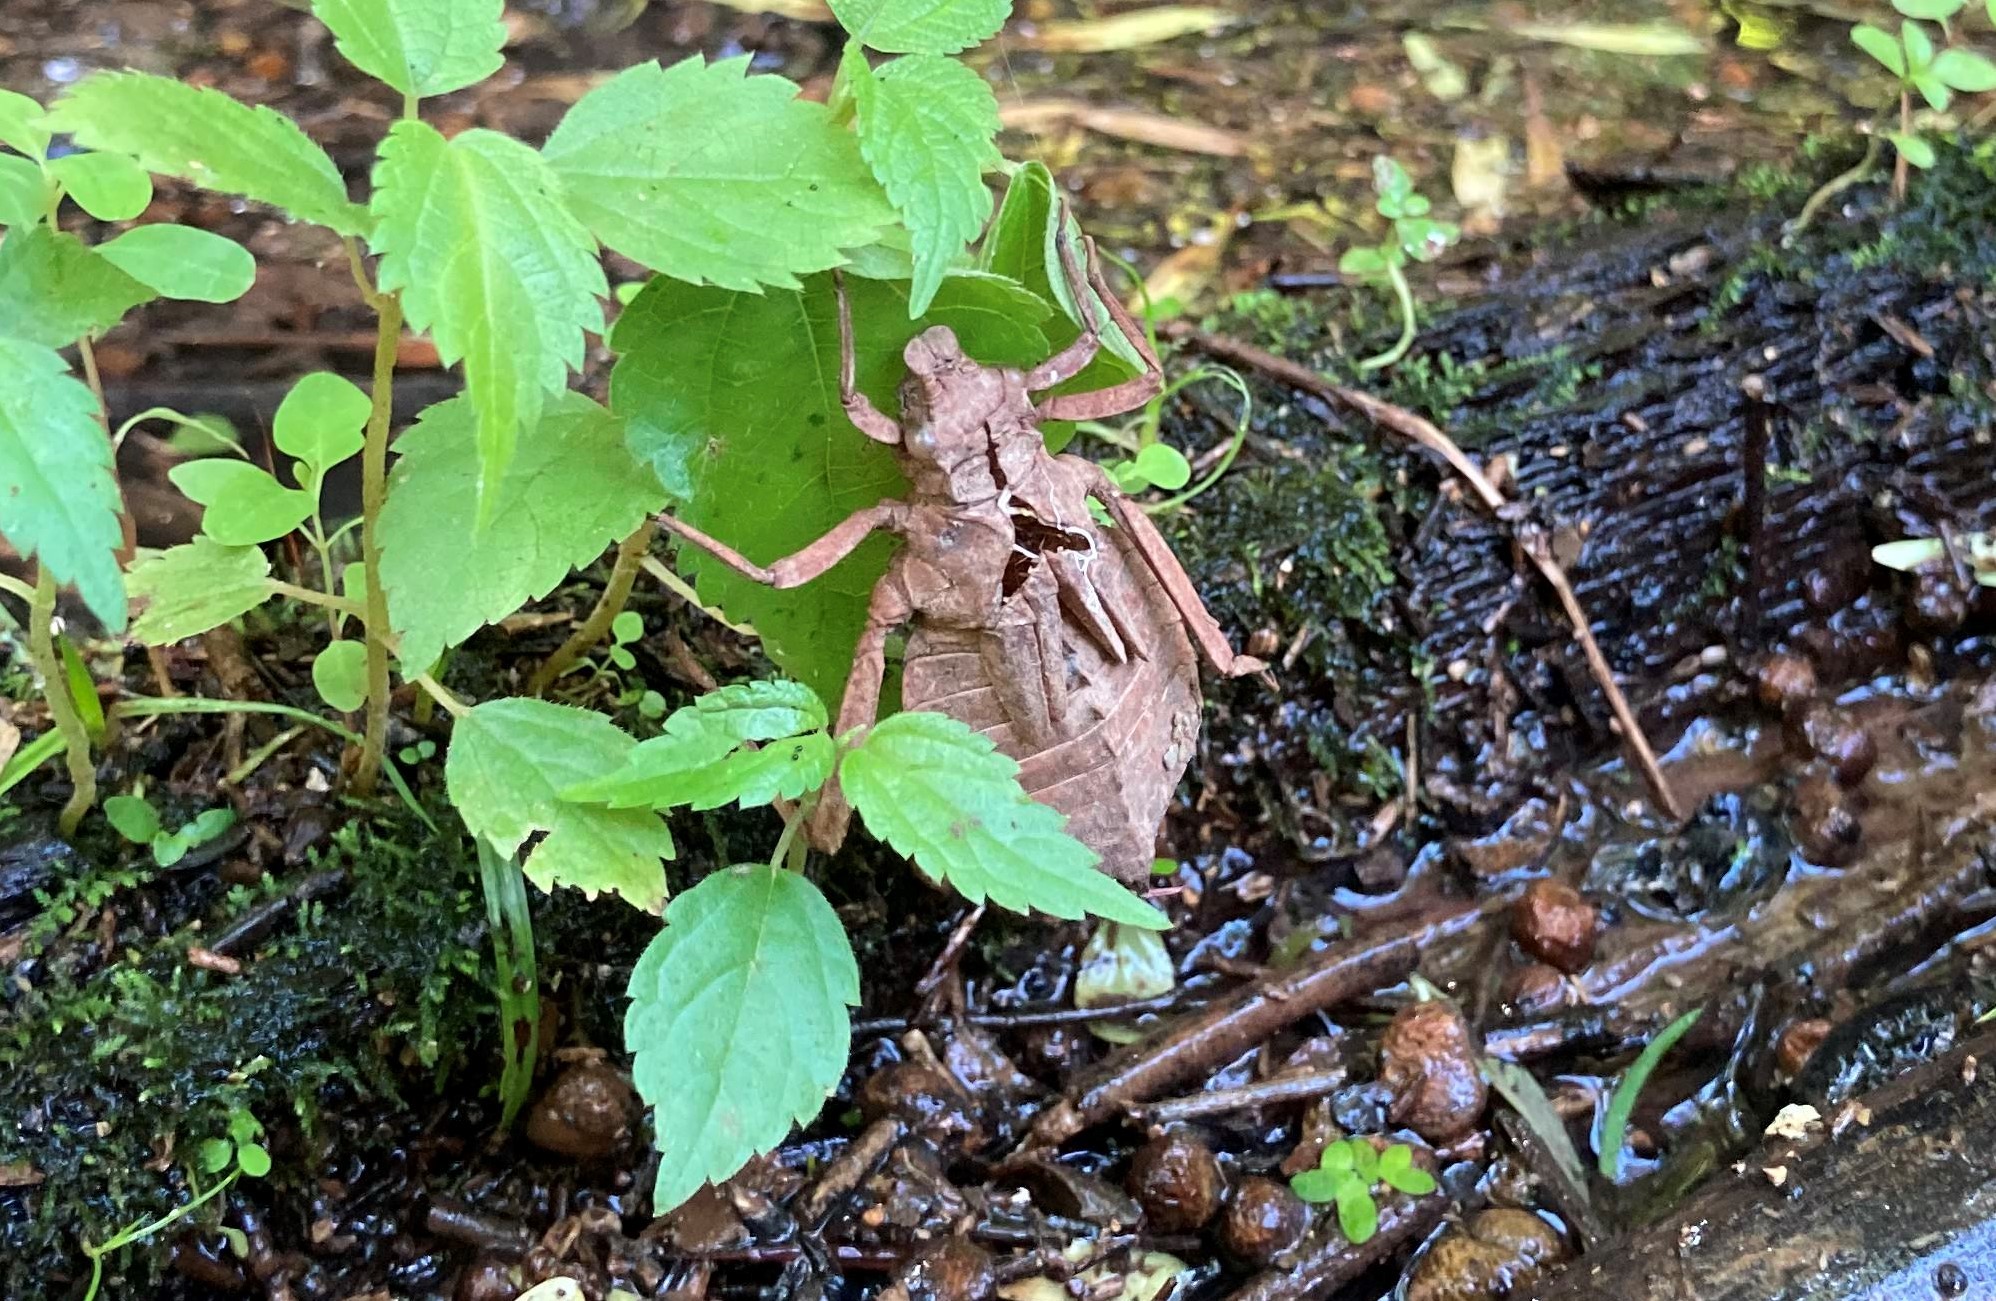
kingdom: Animalia
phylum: Arthropoda
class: Insecta
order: Odonata
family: Gomphidae
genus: Hagenius
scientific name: Hagenius brevistylus
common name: Dragonhunter
